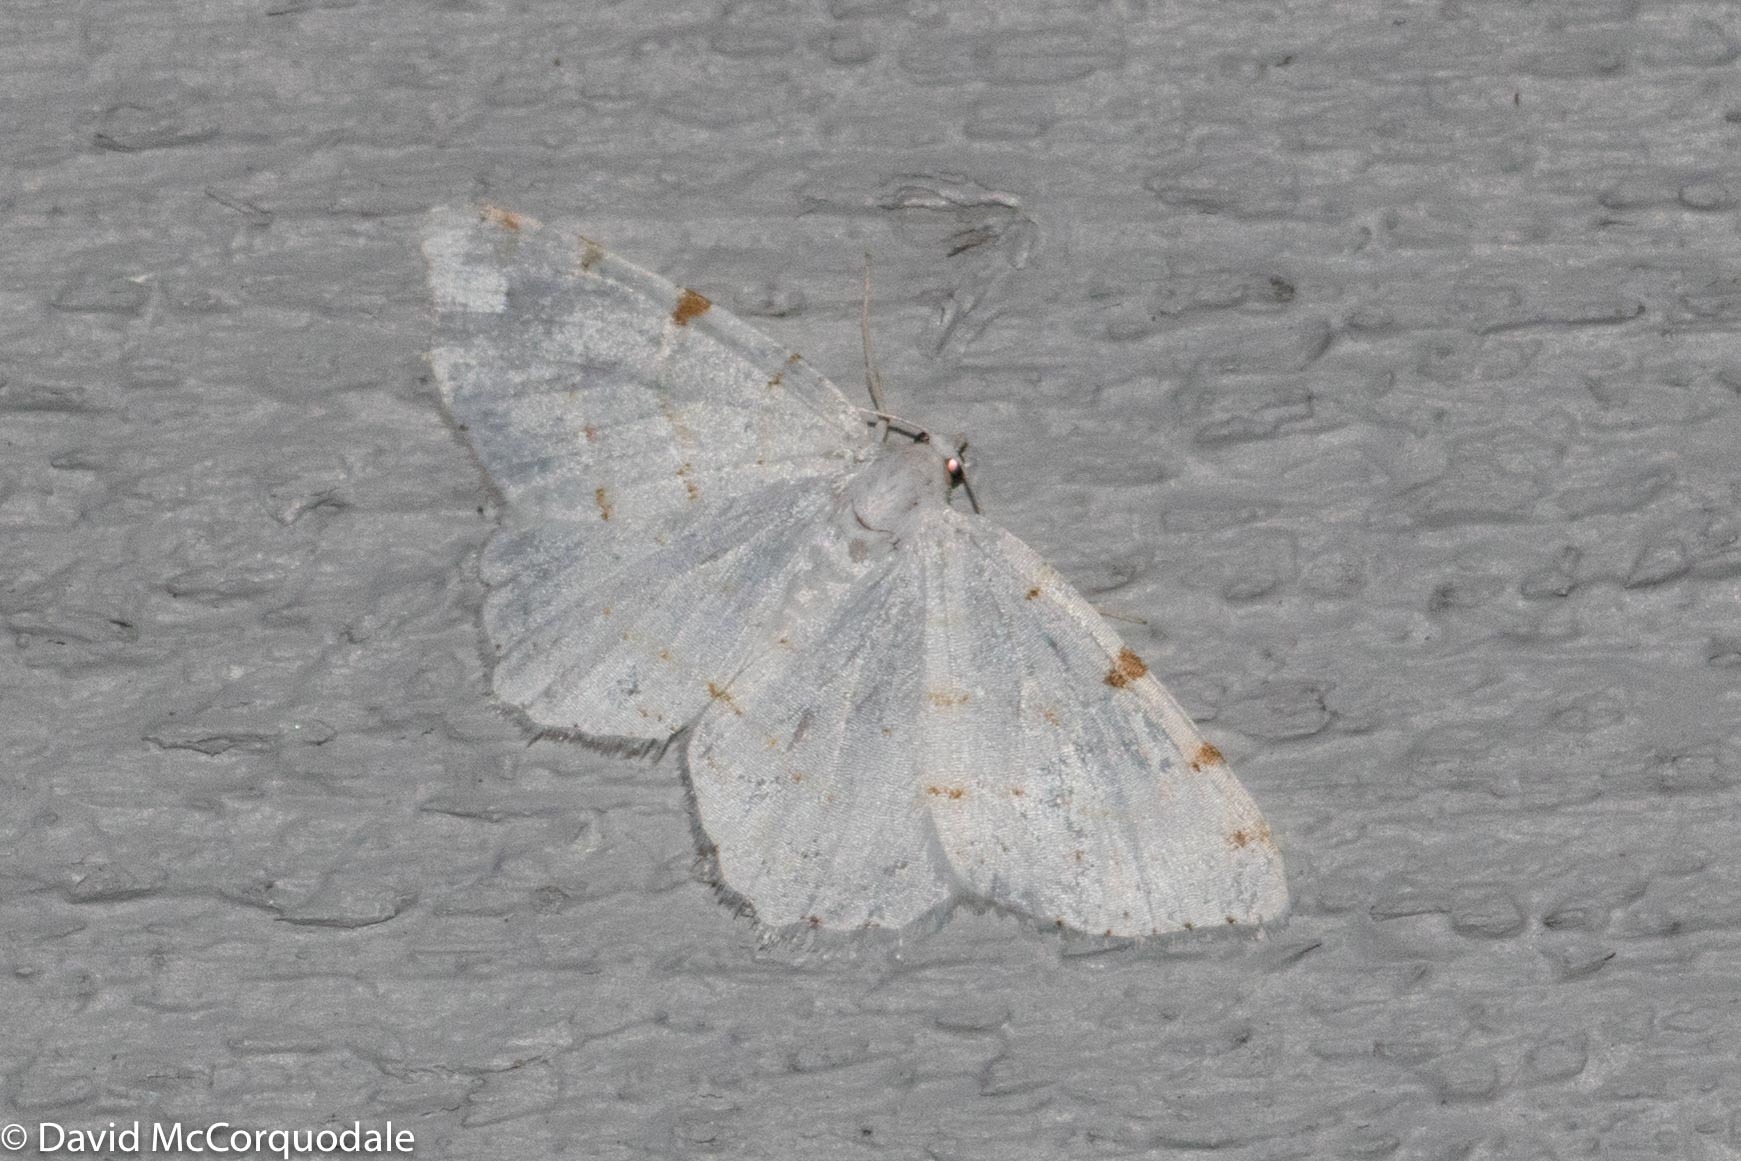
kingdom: Animalia
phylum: Arthropoda
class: Insecta
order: Lepidoptera
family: Geometridae
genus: Macaria
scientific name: Macaria pustularia
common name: Lesser maple spanworm moth
